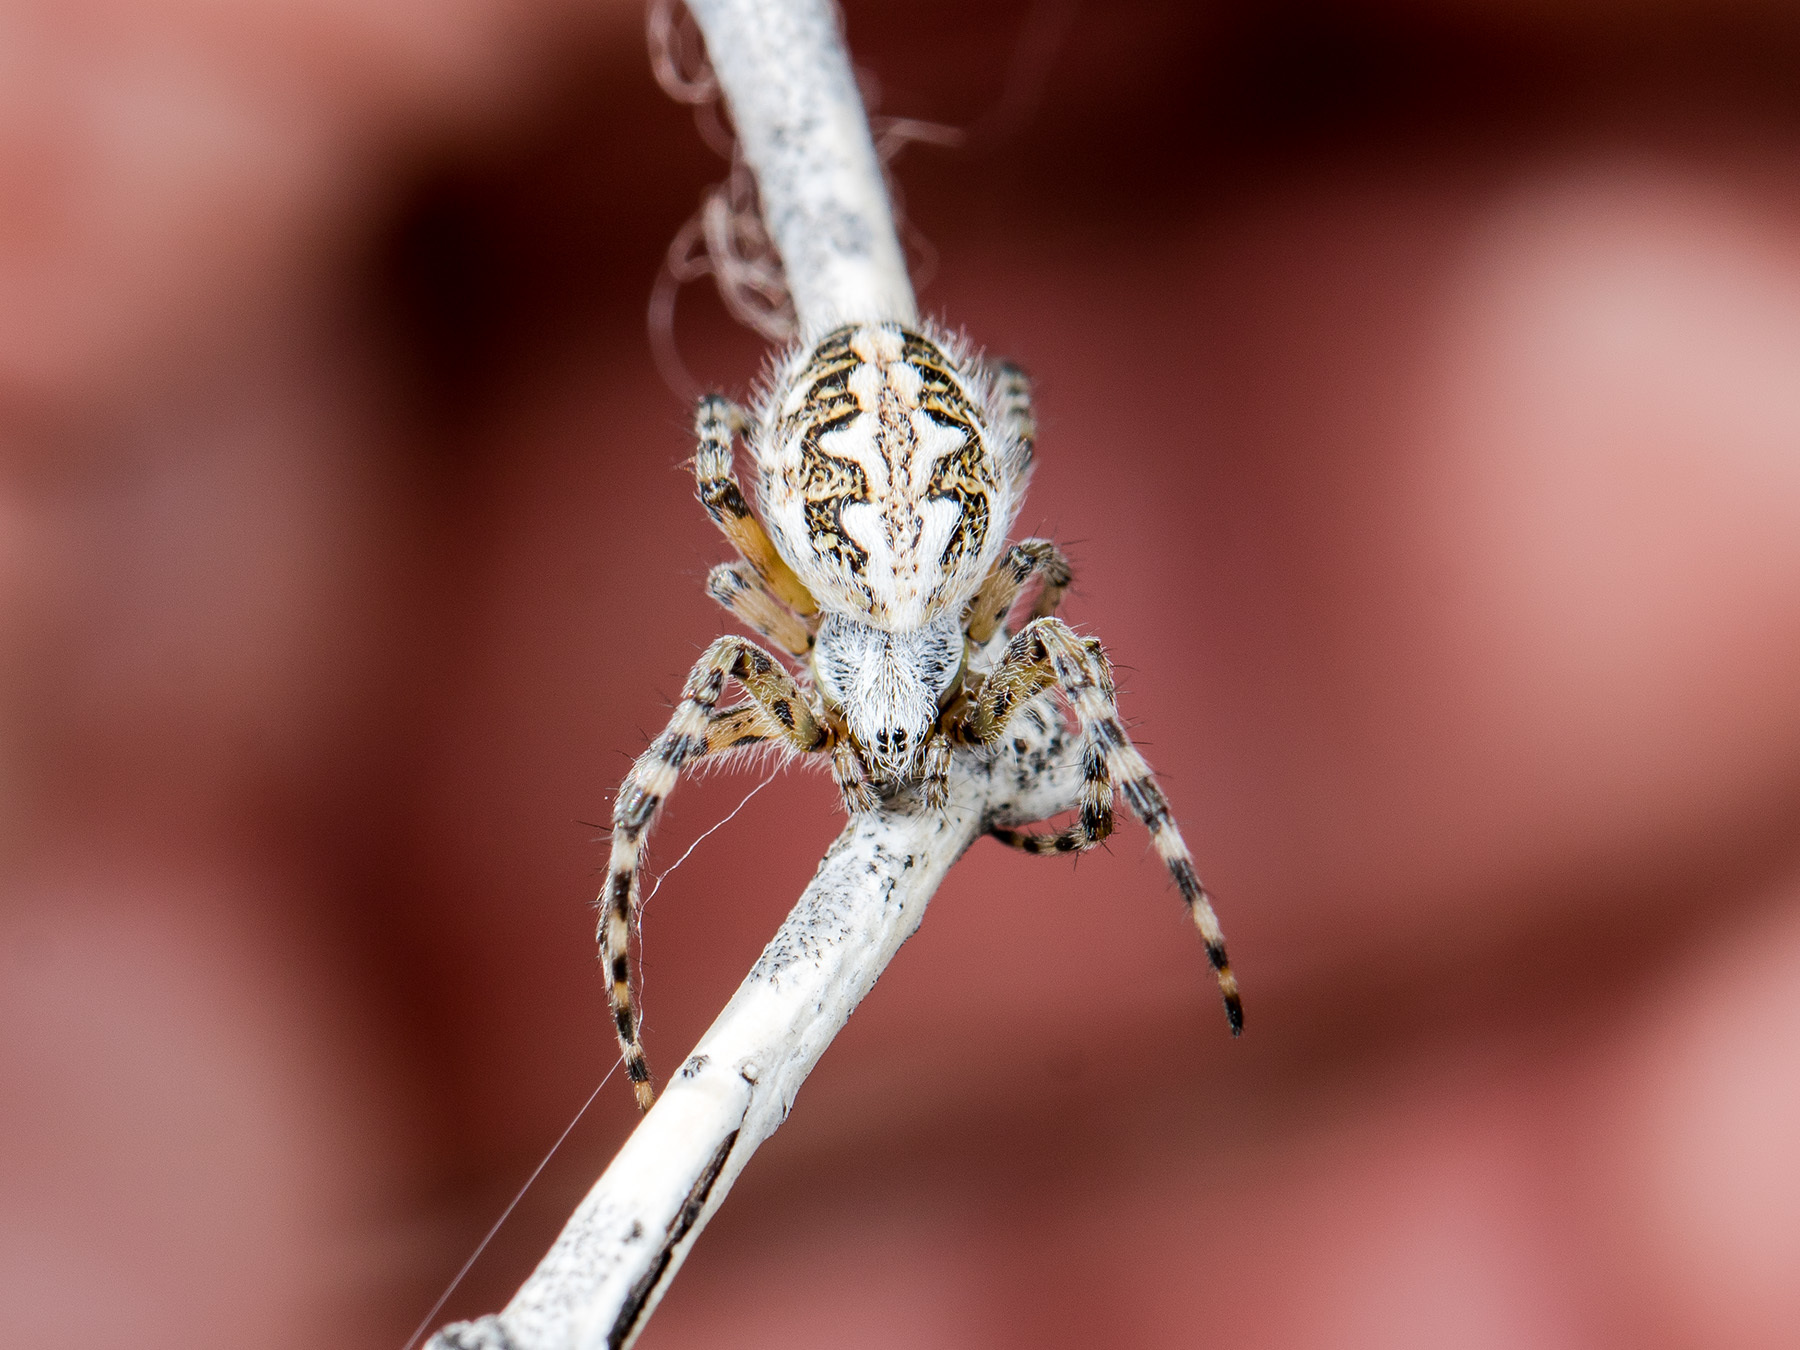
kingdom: Animalia
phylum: Arthropoda
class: Arachnida
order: Araneae
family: Araneidae
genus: Aculepeira
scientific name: Aculepeira armida
